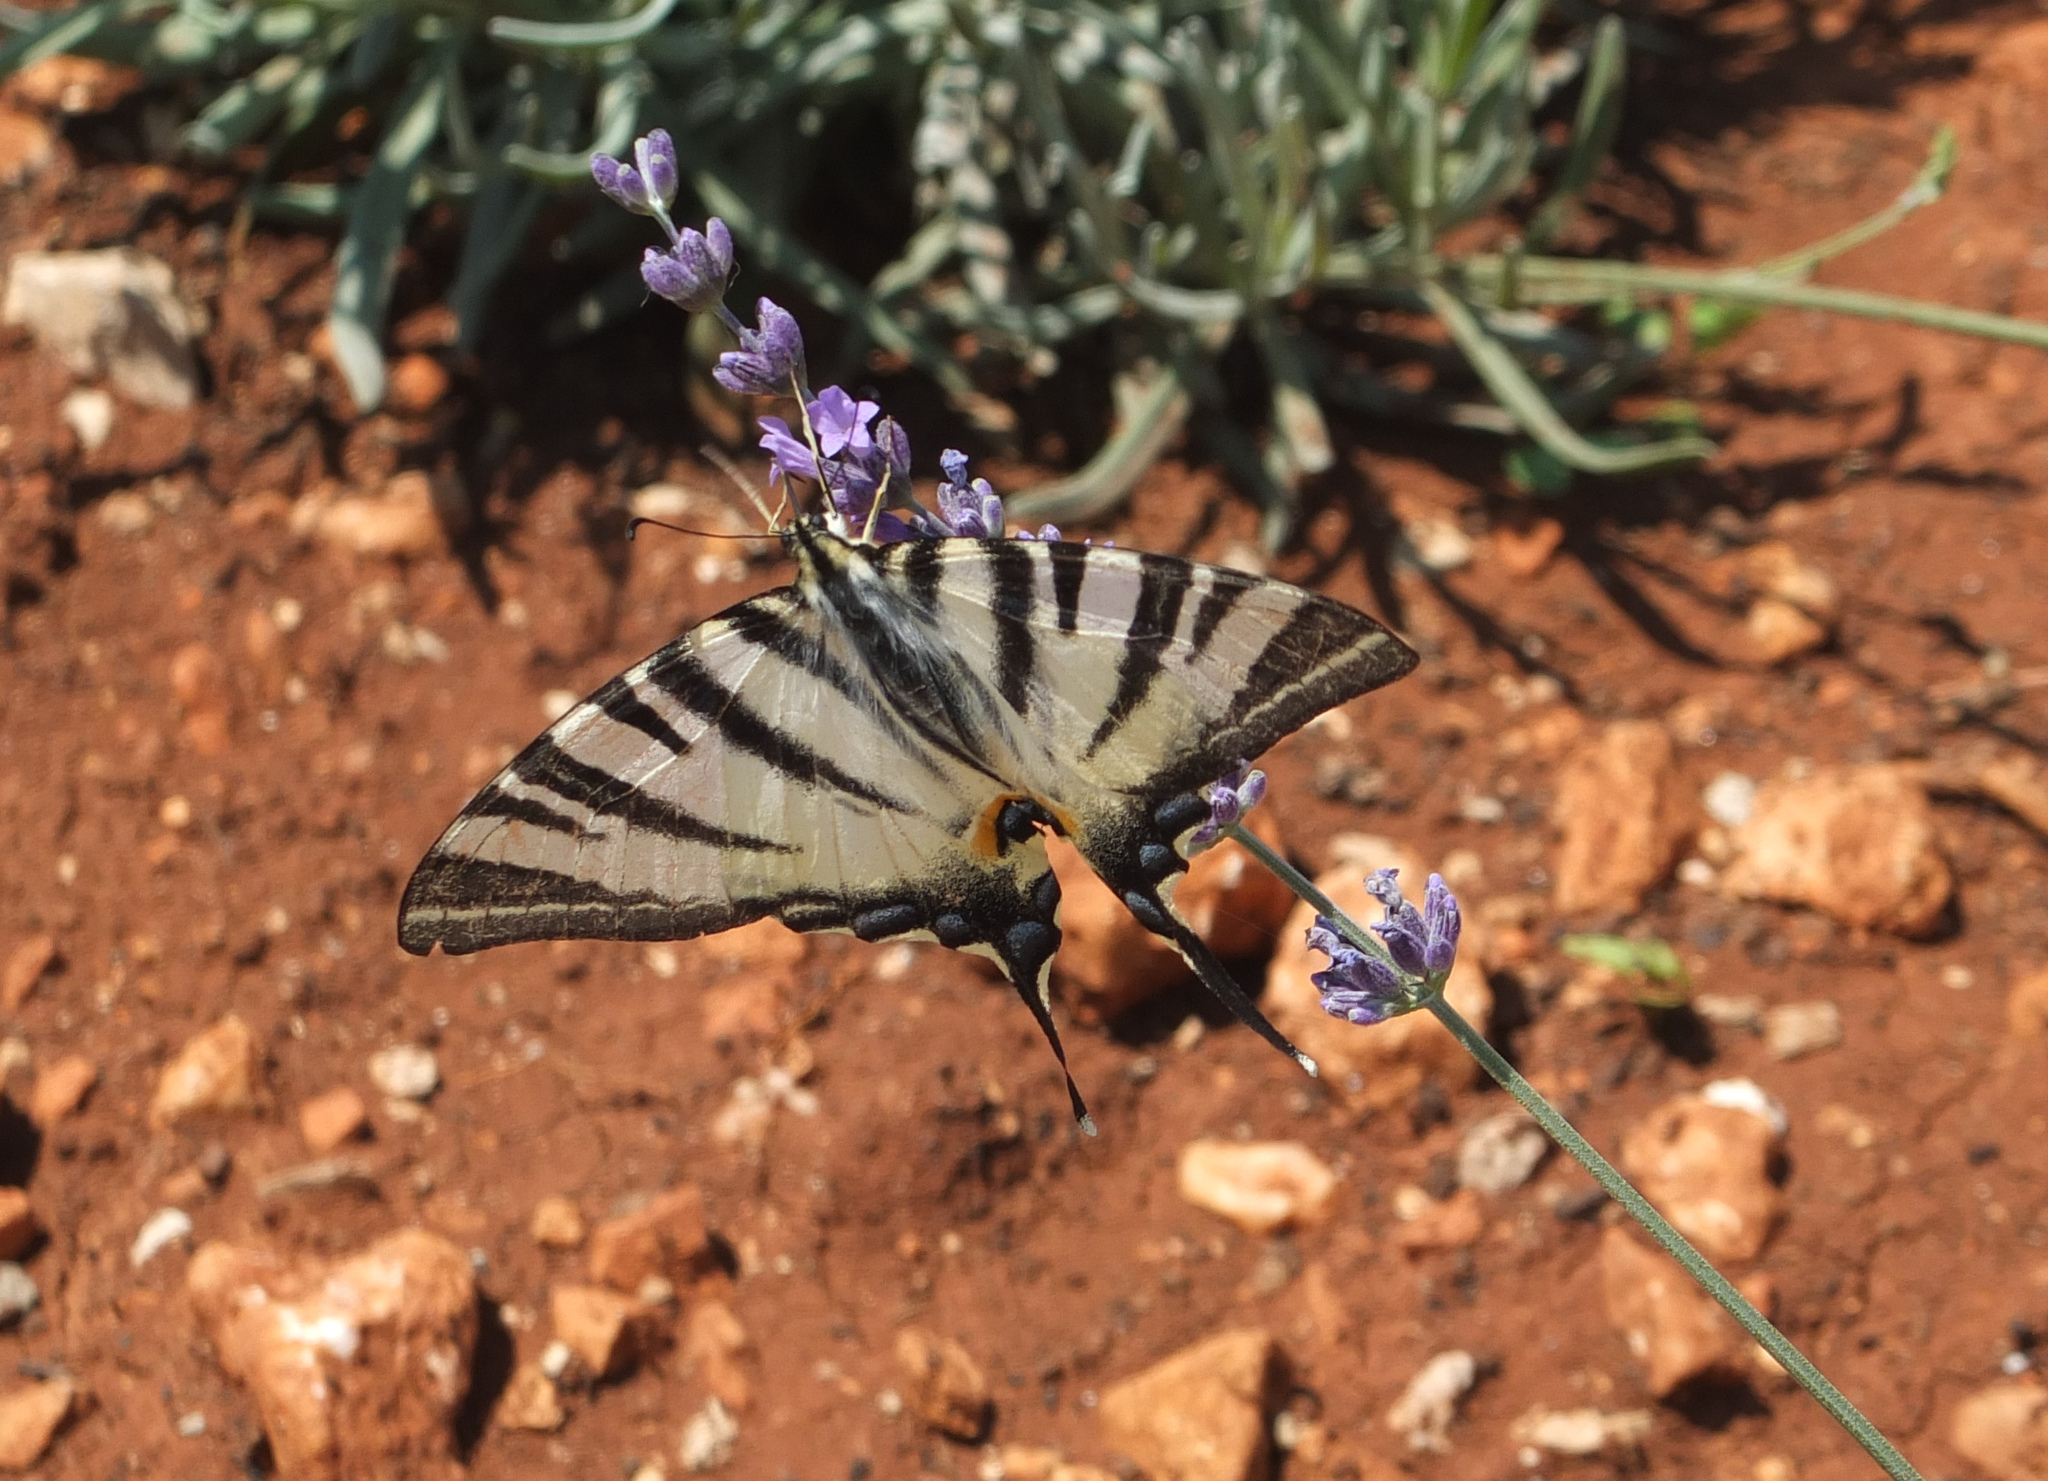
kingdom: Animalia
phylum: Arthropoda
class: Insecta
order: Lepidoptera
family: Papilionidae
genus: Iphiclides
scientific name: Iphiclides podalirius
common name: Scarce swallowtail
